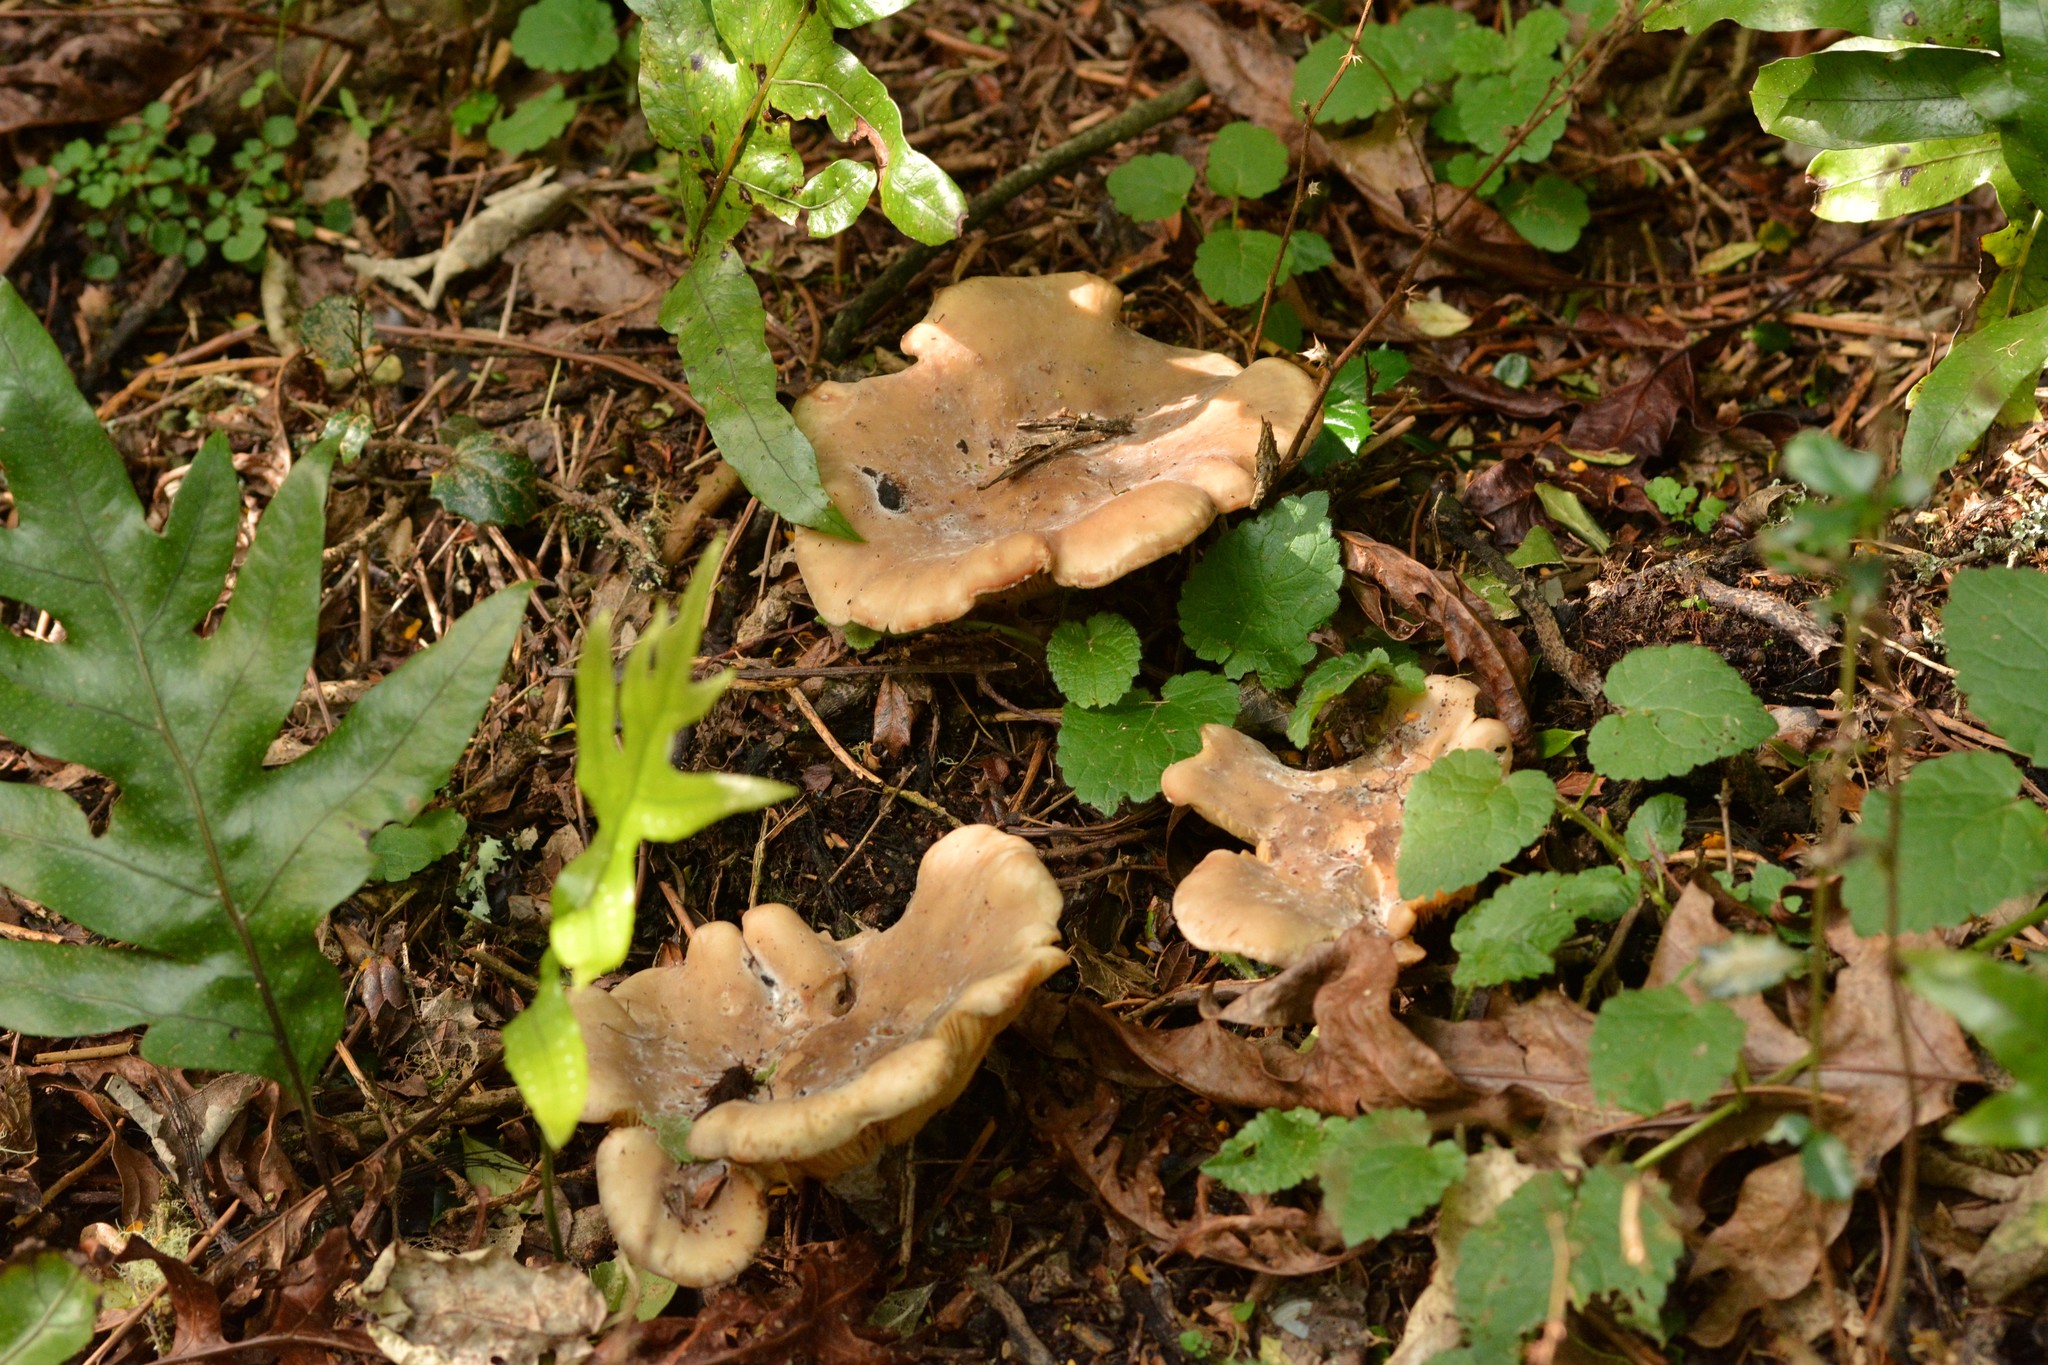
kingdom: Fungi
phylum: Basidiomycota
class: Agaricomycetes
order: Agaricales
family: Tricholomataceae
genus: Clitocybe
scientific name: Clitocybe nebularis
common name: Clouded agaric
